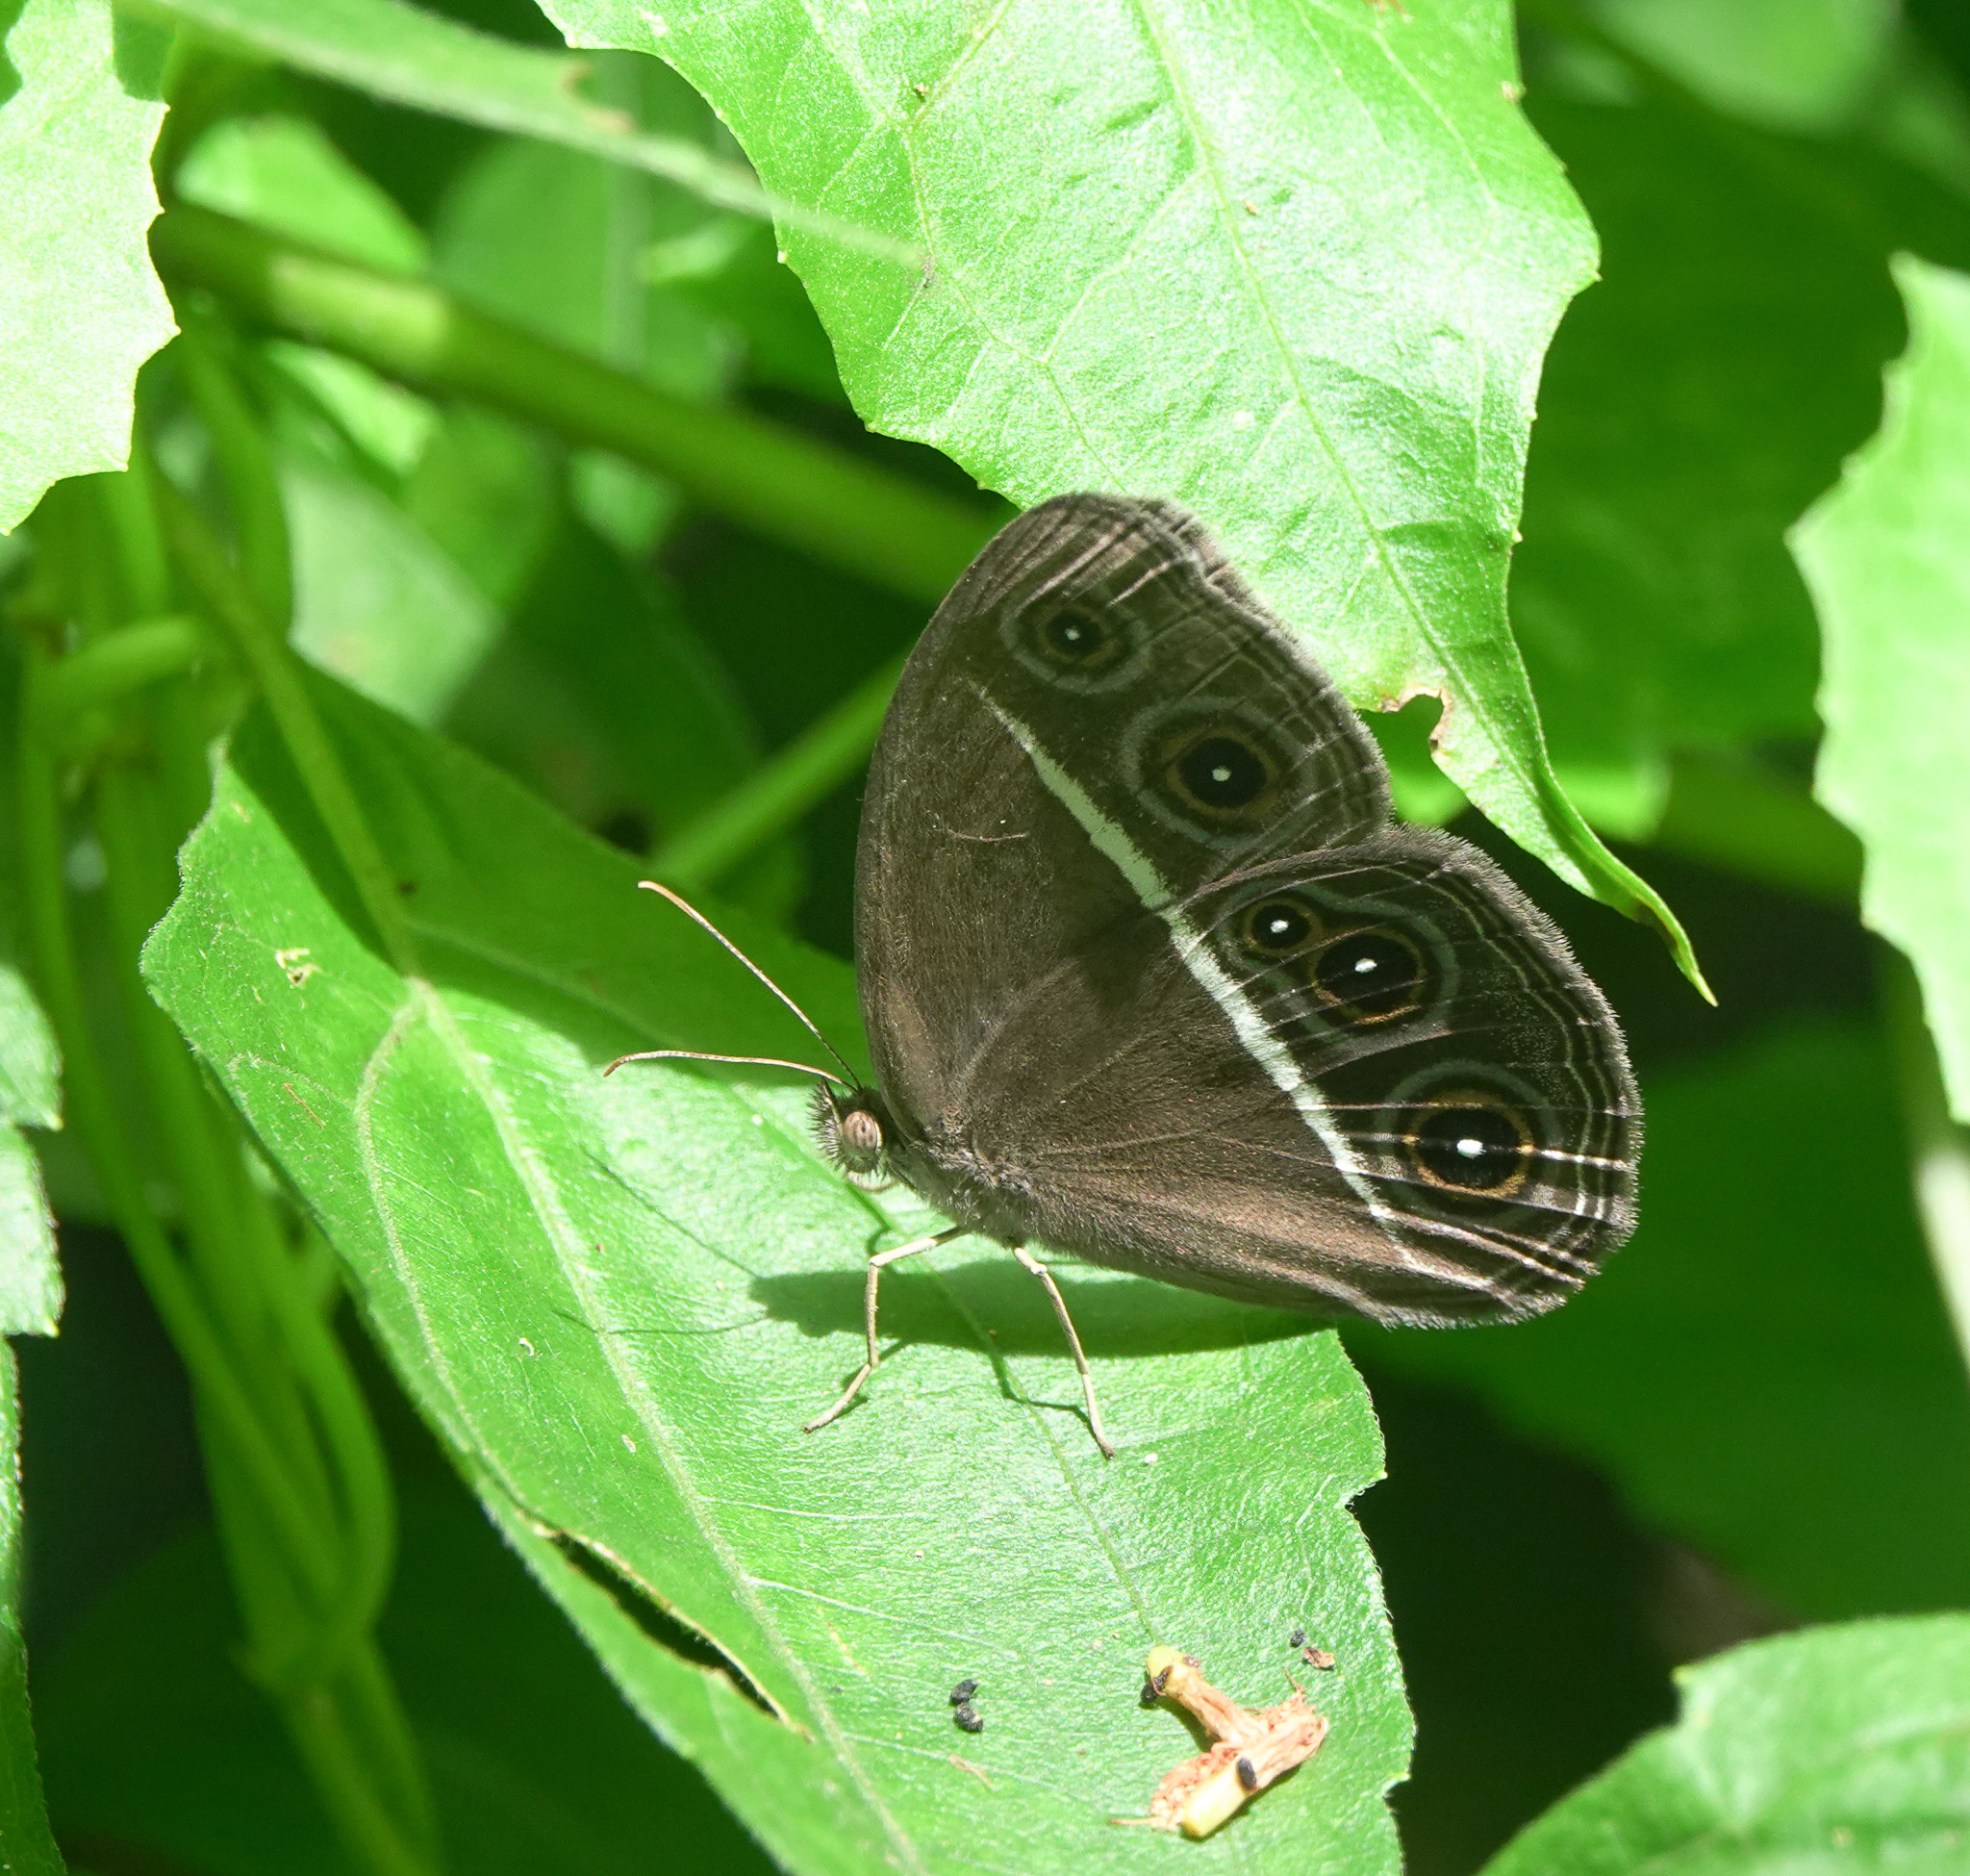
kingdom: Animalia
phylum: Arthropoda
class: Insecta
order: Lepidoptera
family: Nymphalidae
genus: Orsotriaena
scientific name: Orsotriaena medus
